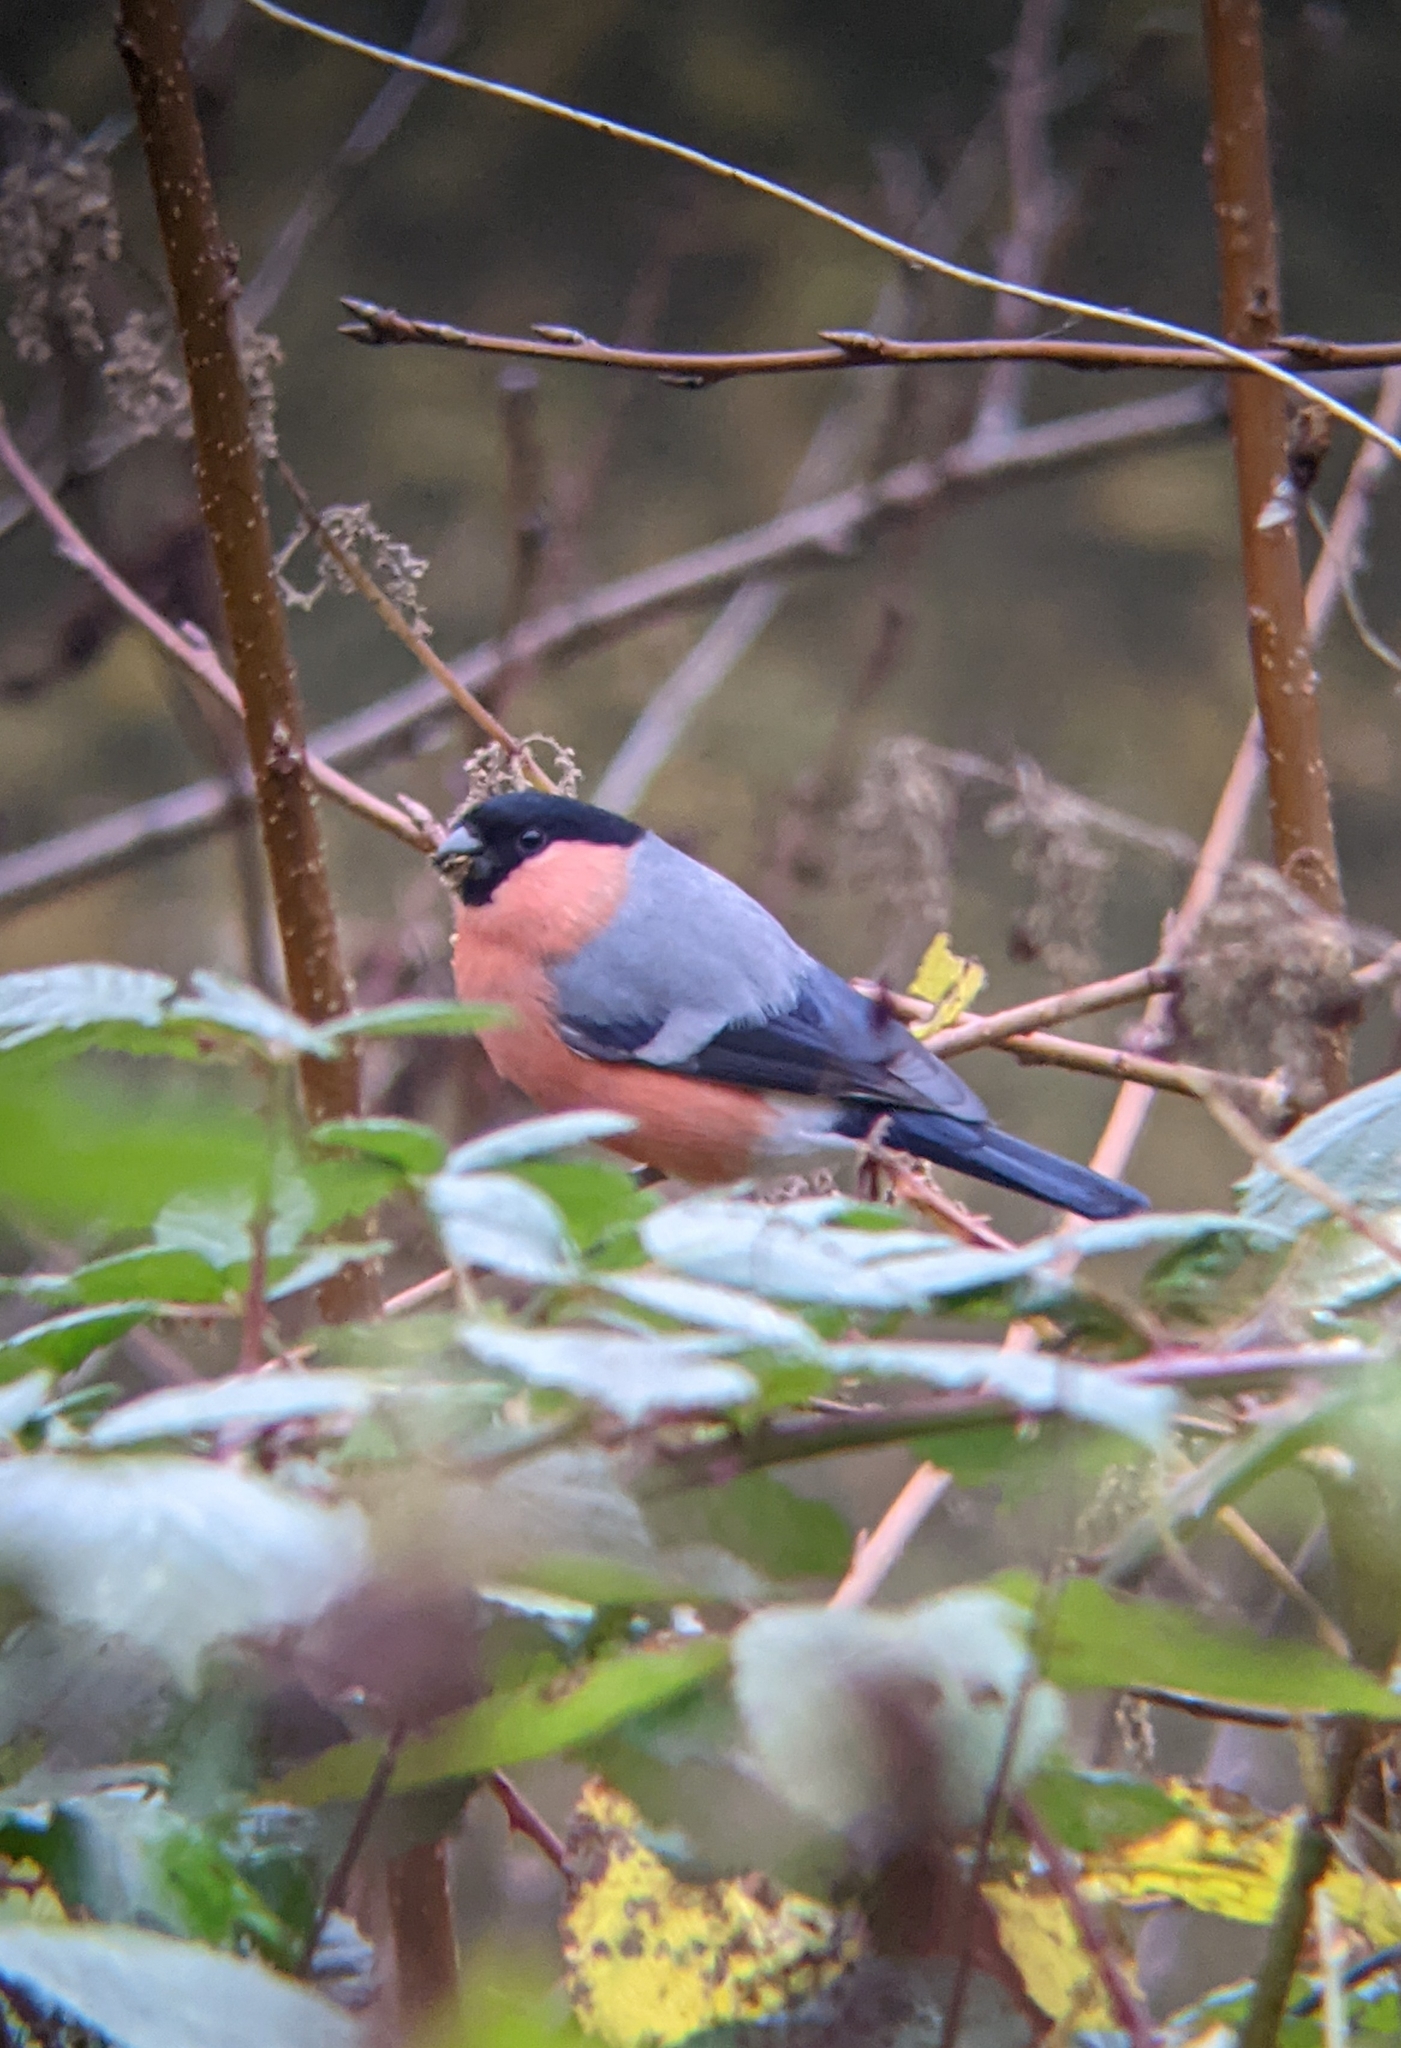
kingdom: Animalia
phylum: Chordata
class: Aves
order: Passeriformes
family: Fringillidae
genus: Pyrrhula
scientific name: Pyrrhula pyrrhula
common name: Eurasian bullfinch
